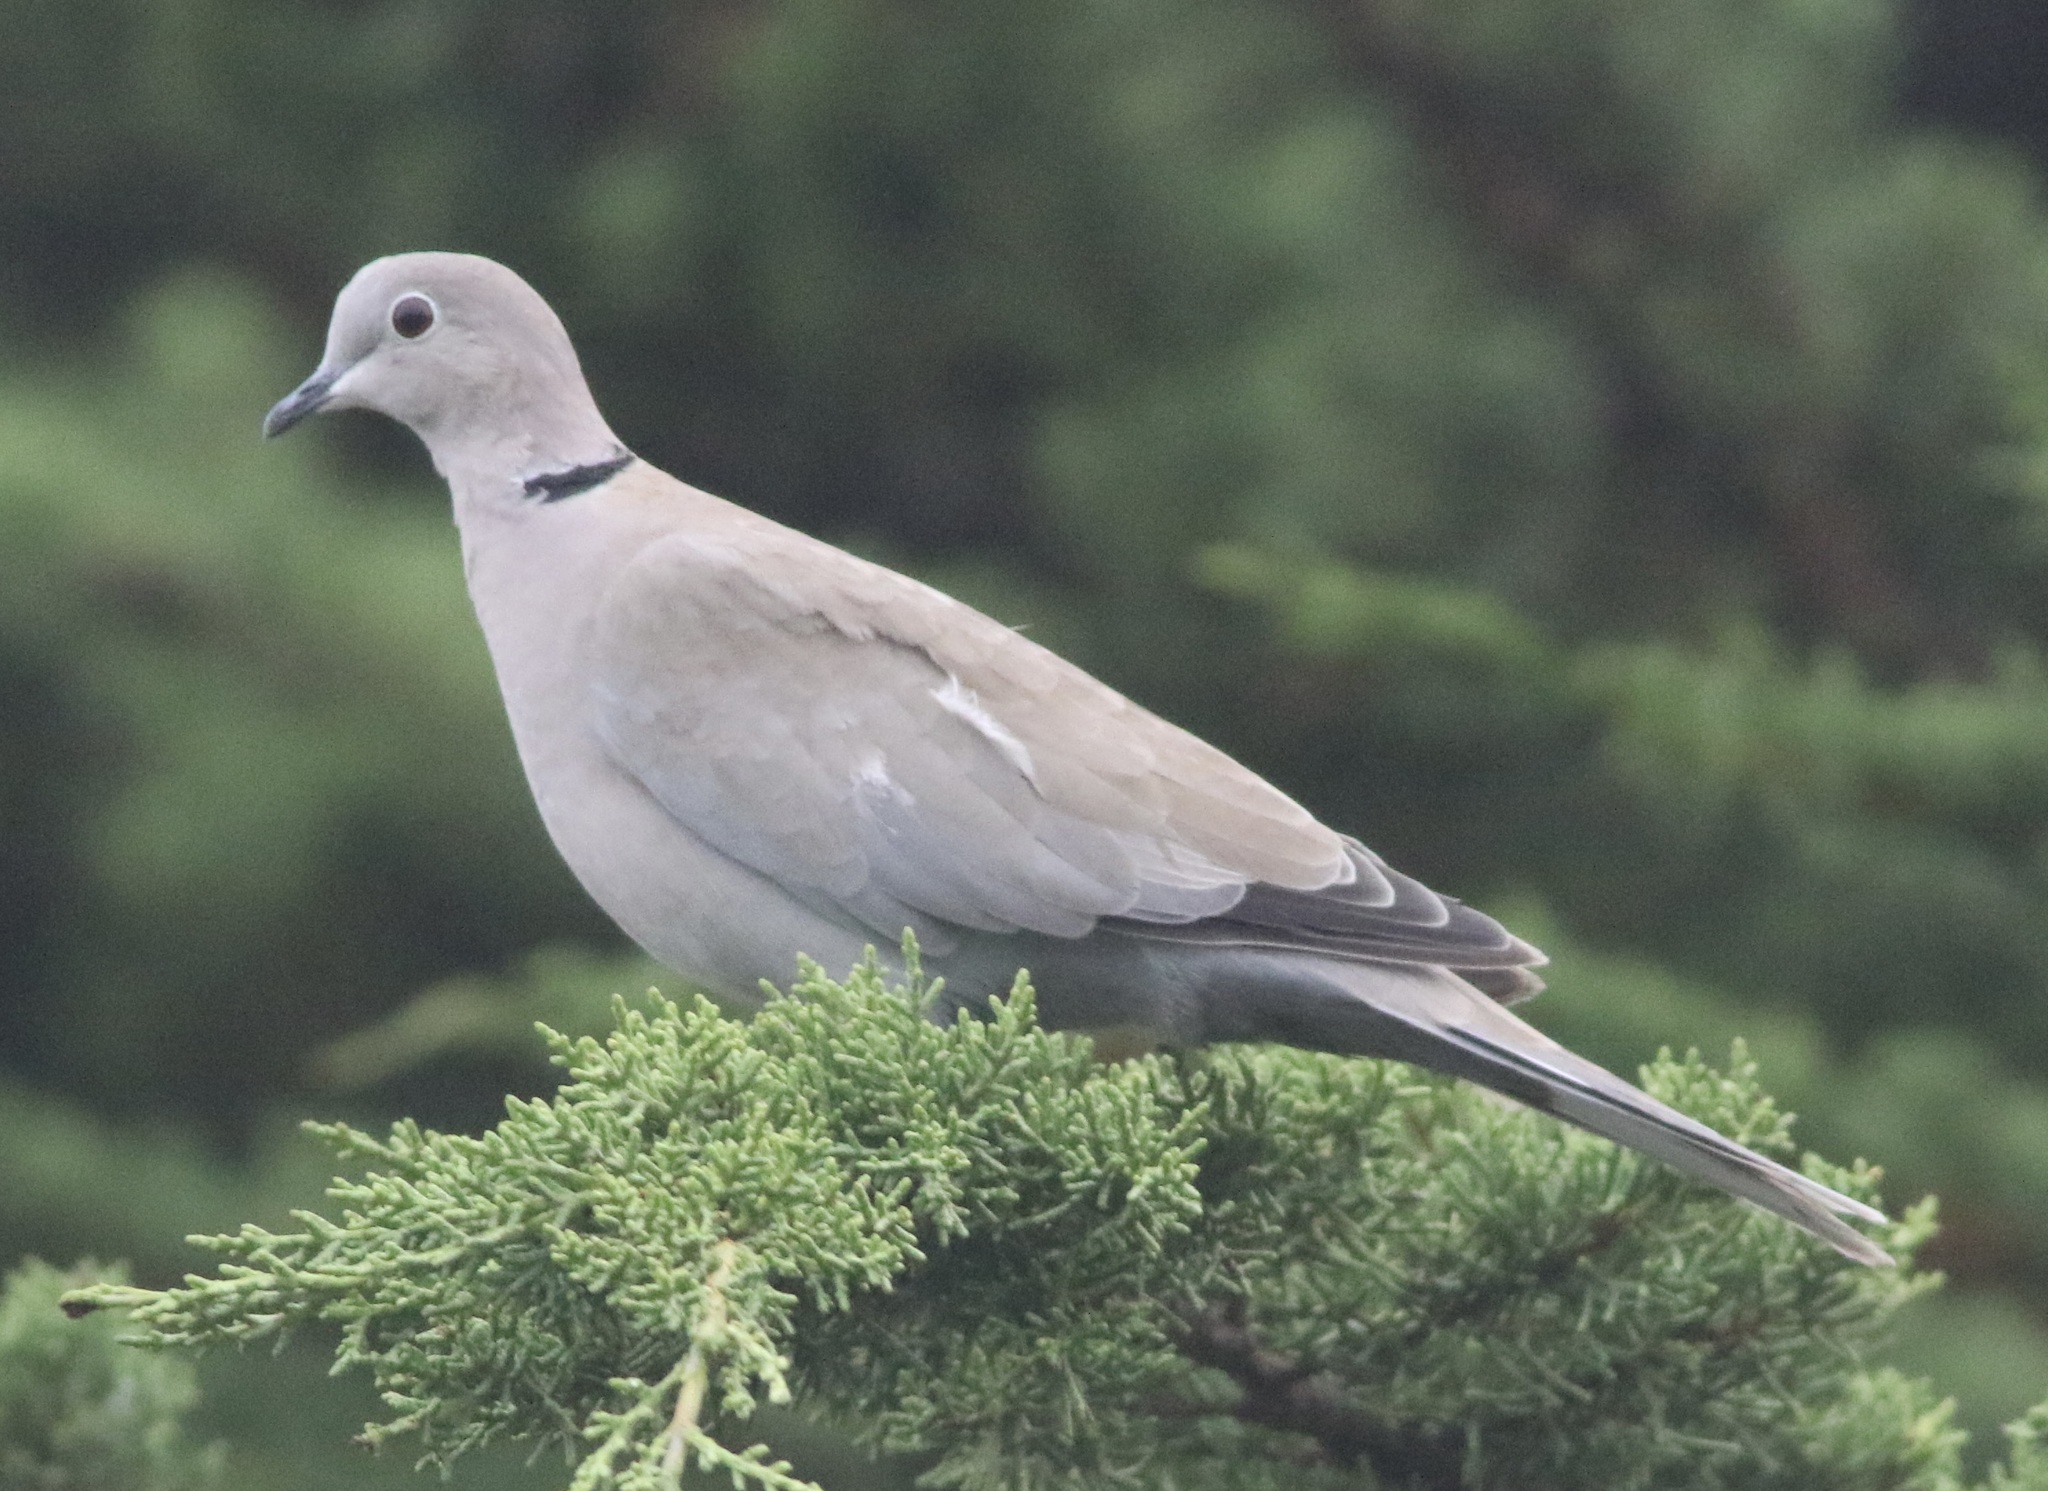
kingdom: Animalia
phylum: Chordata
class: Aves
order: Columbiformes
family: Columbidae
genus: Streptopelia
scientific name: Streptopelia decaocto
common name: Eurasian collared dove
